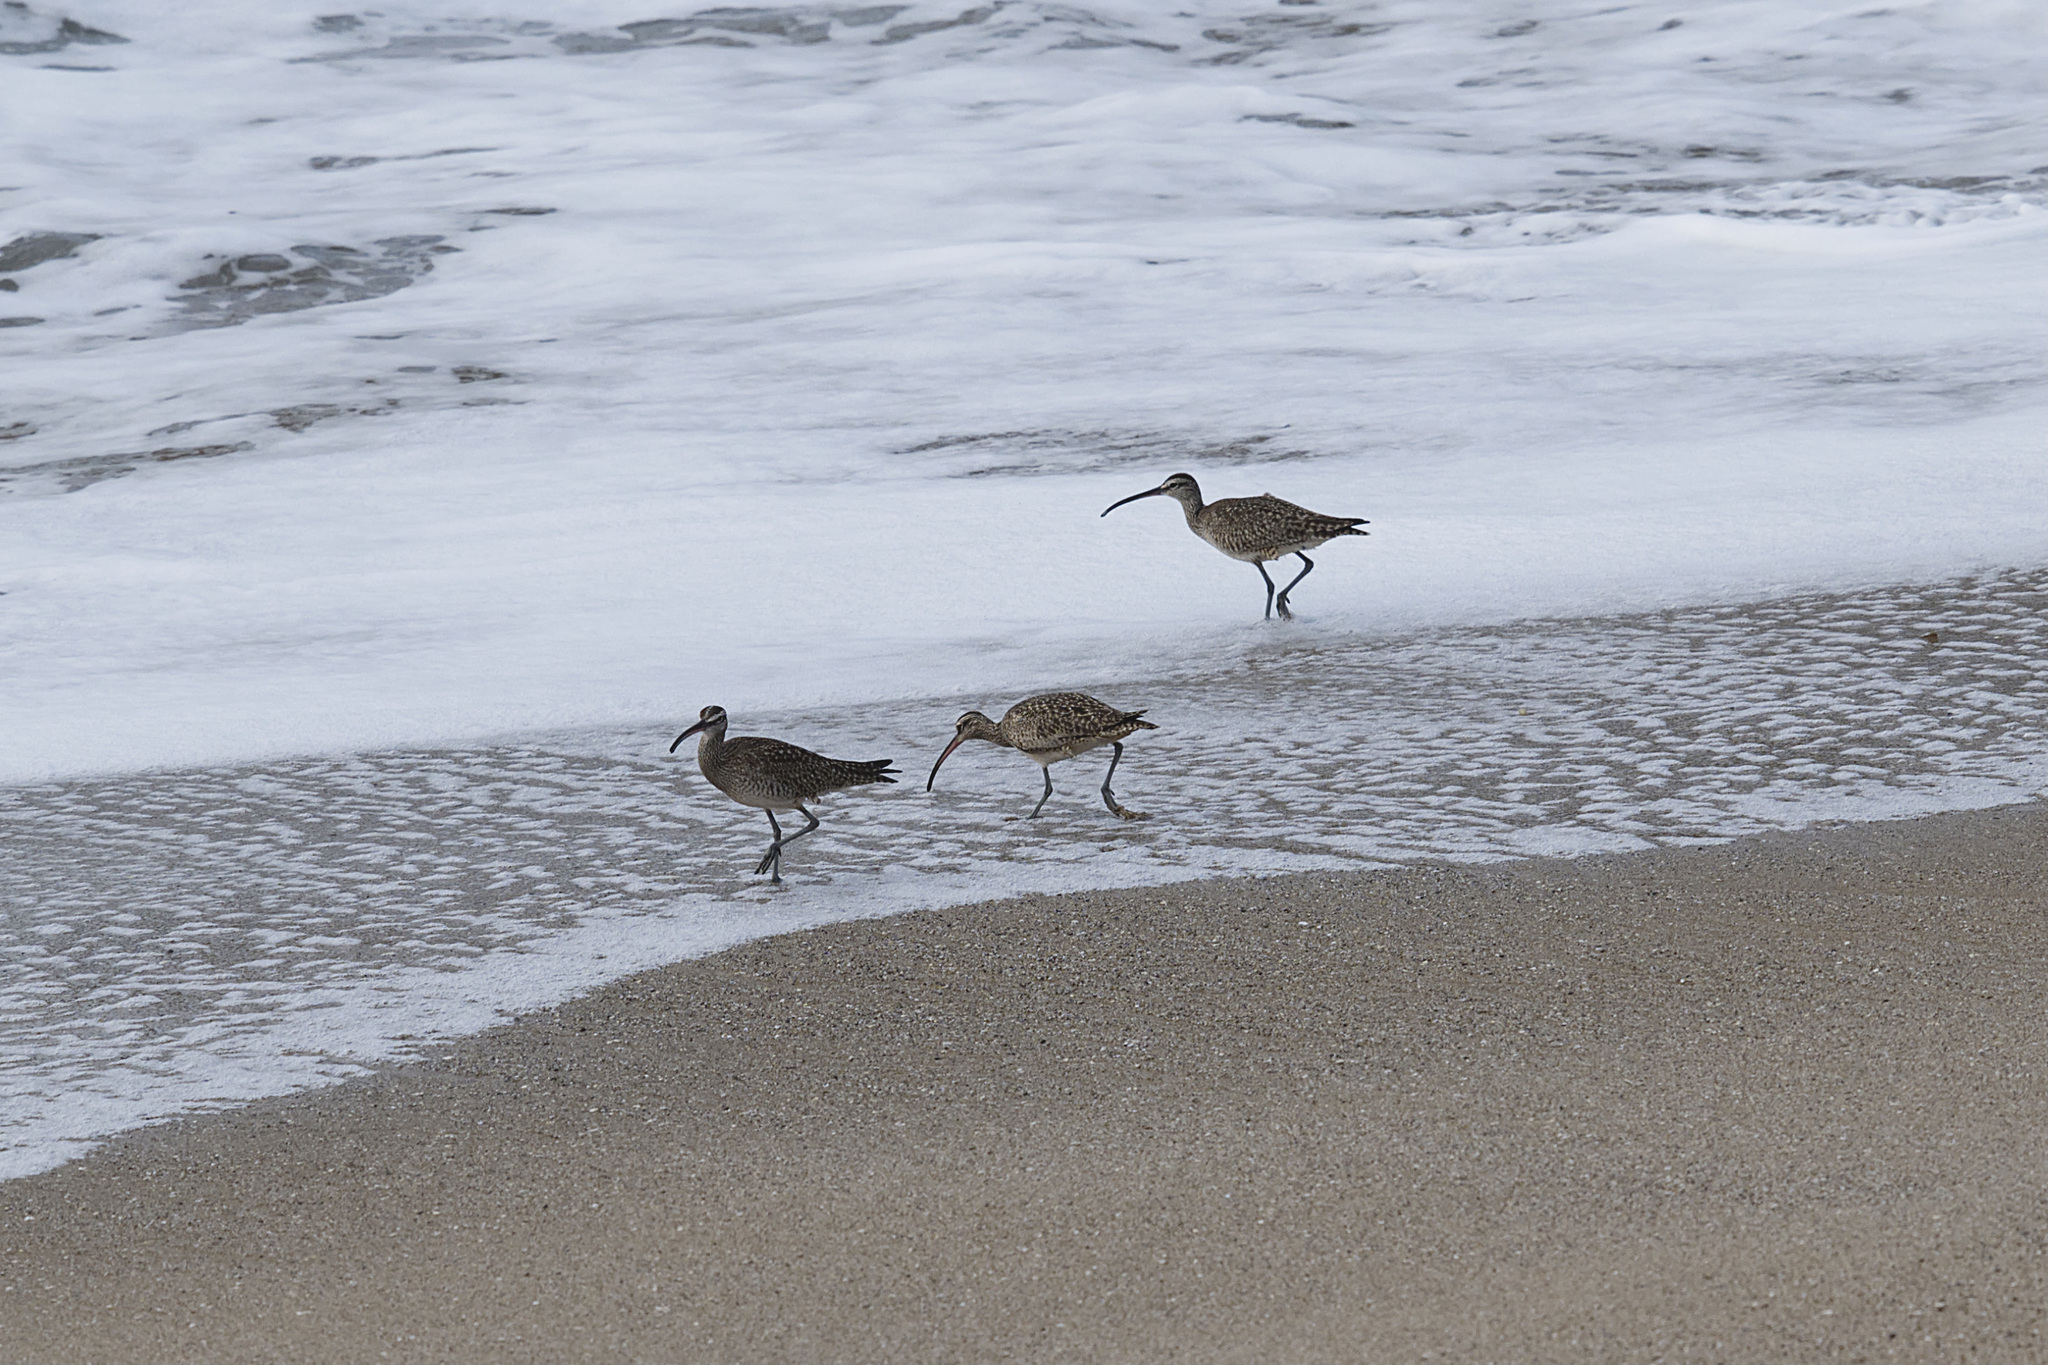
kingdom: Animalia
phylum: Chordata
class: Aves
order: Charadriiformes
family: Scolopacidae
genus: Numenius
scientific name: Numenius phaeopus
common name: Whimbrel
